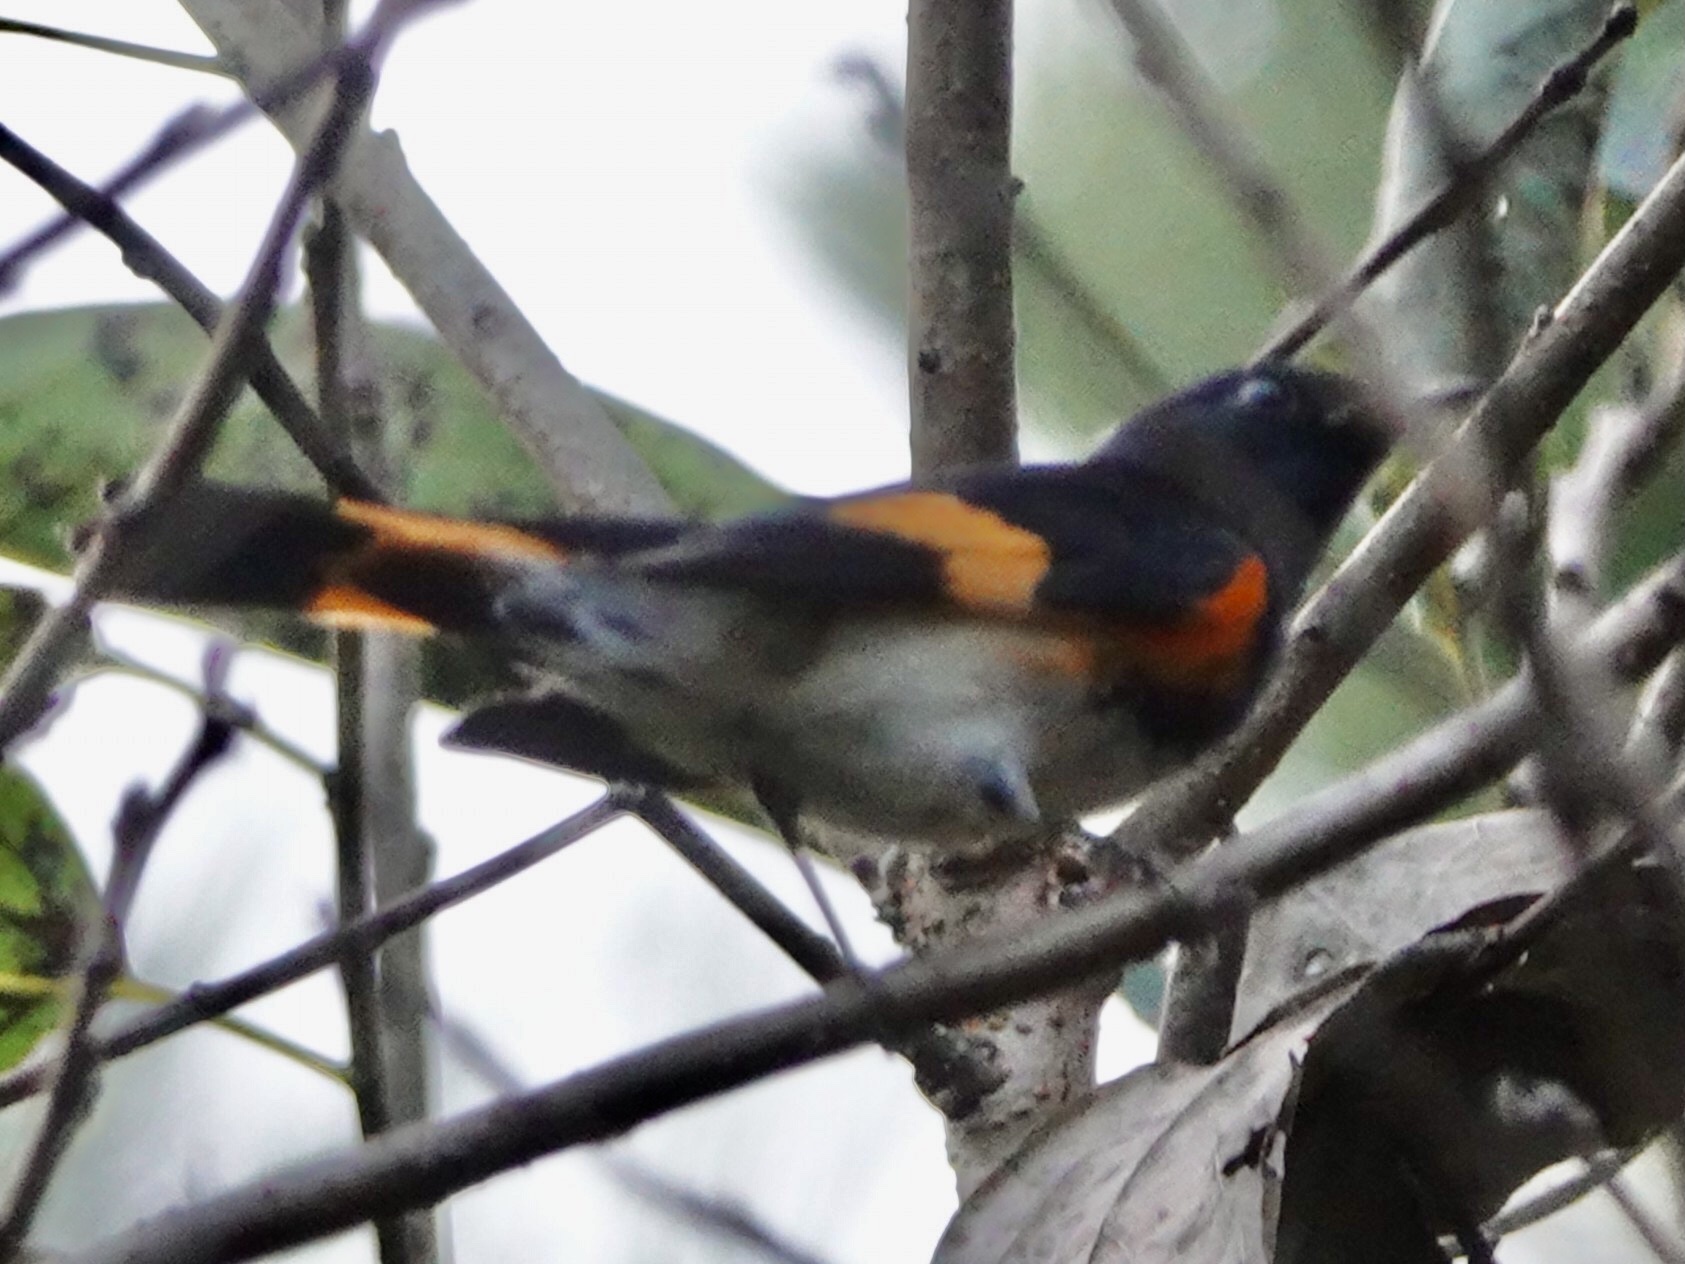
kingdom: Animalia
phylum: Chordata
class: Aves
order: Passeriformes
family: Parulidae
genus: Setophaga
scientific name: Setophaga ruticilla
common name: American redstart
